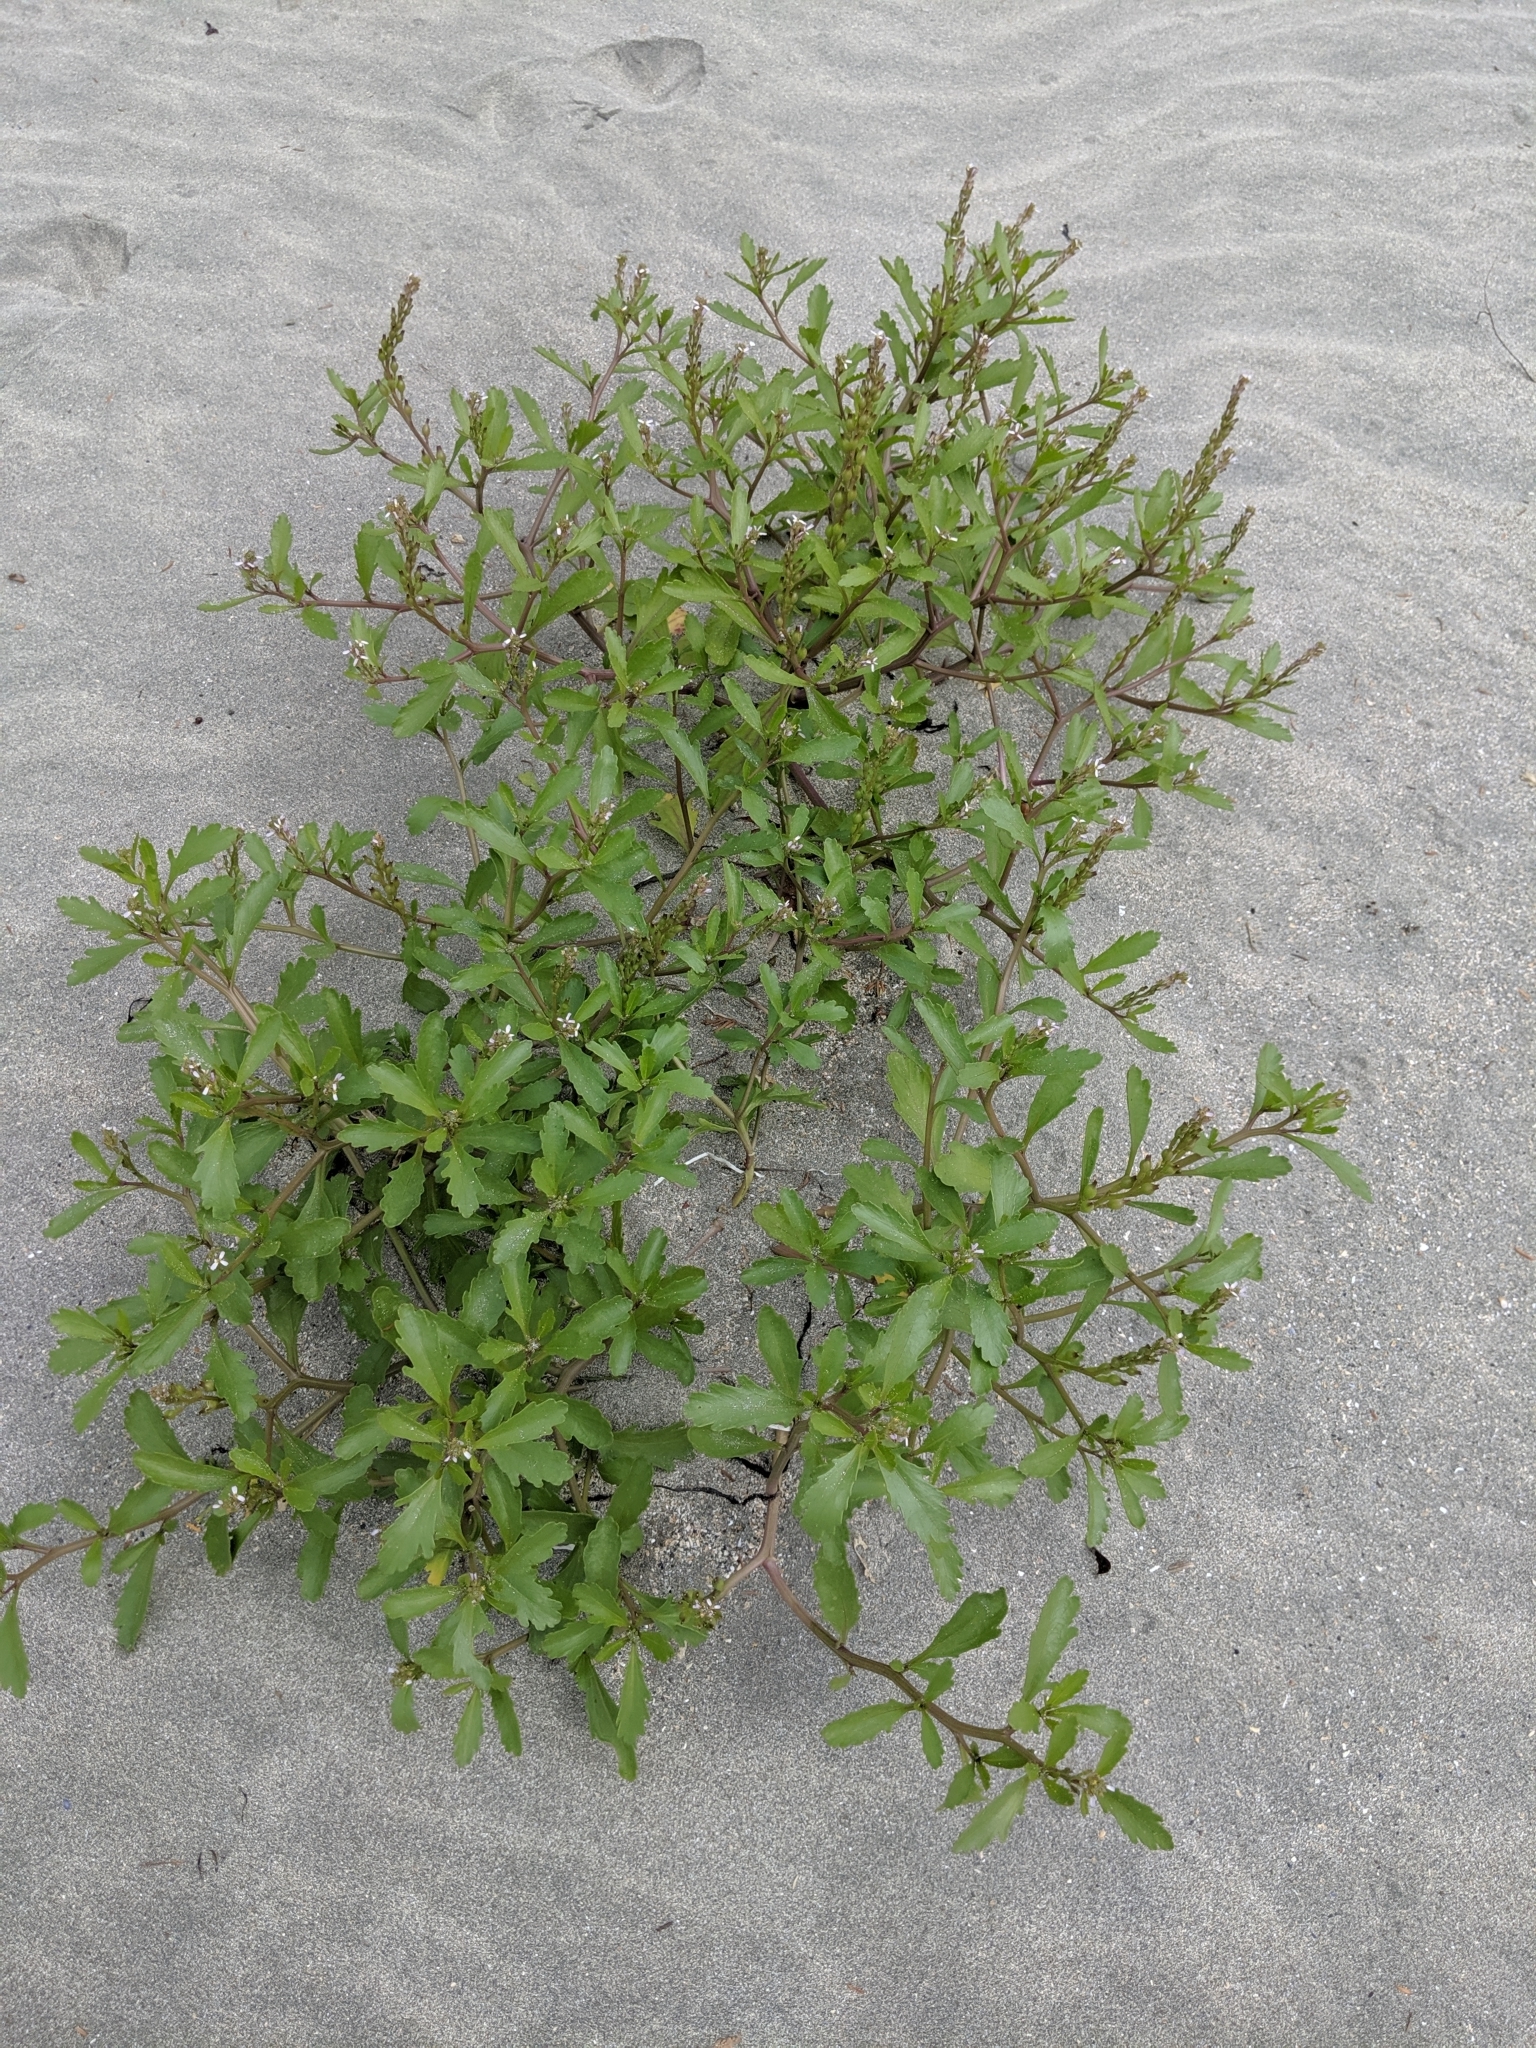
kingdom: Plantae
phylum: Tracheophyta
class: Magnoliopsida
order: Brassicales
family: Brassicaceae
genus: Cakile
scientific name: Cakile edentula
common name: American sea rocket
